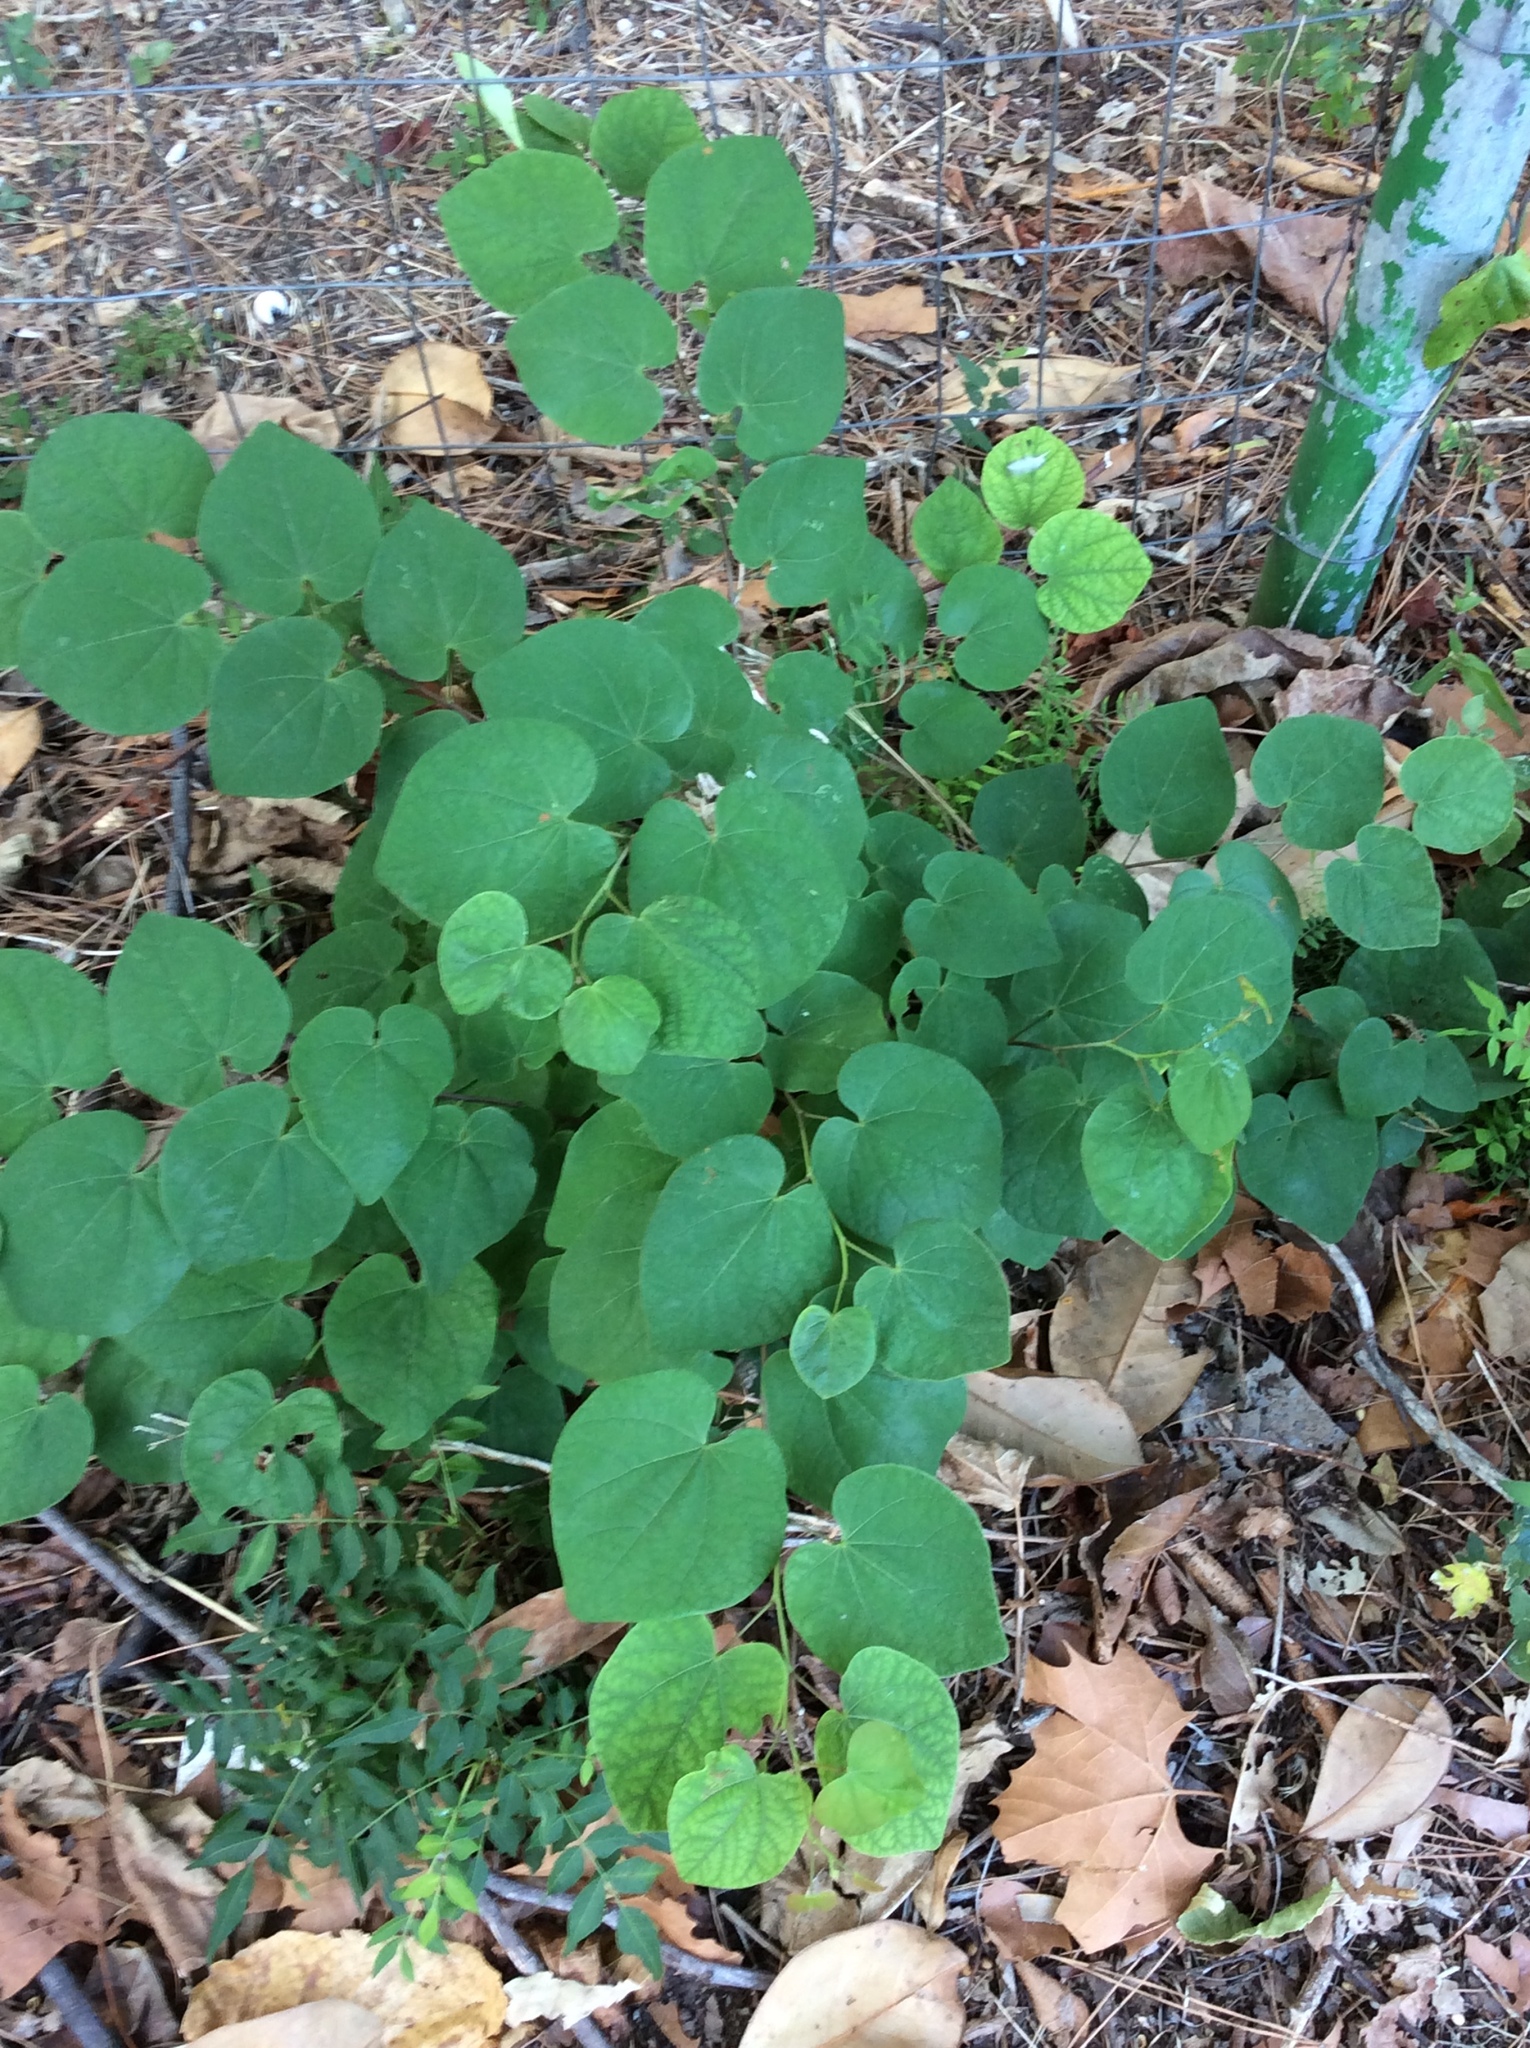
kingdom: Plantae
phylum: Tracheophyta
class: Magnoliopsida
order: Fabales
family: Fabaceae
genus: Cercis
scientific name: Cercis canadensis
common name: Eastern redbud
